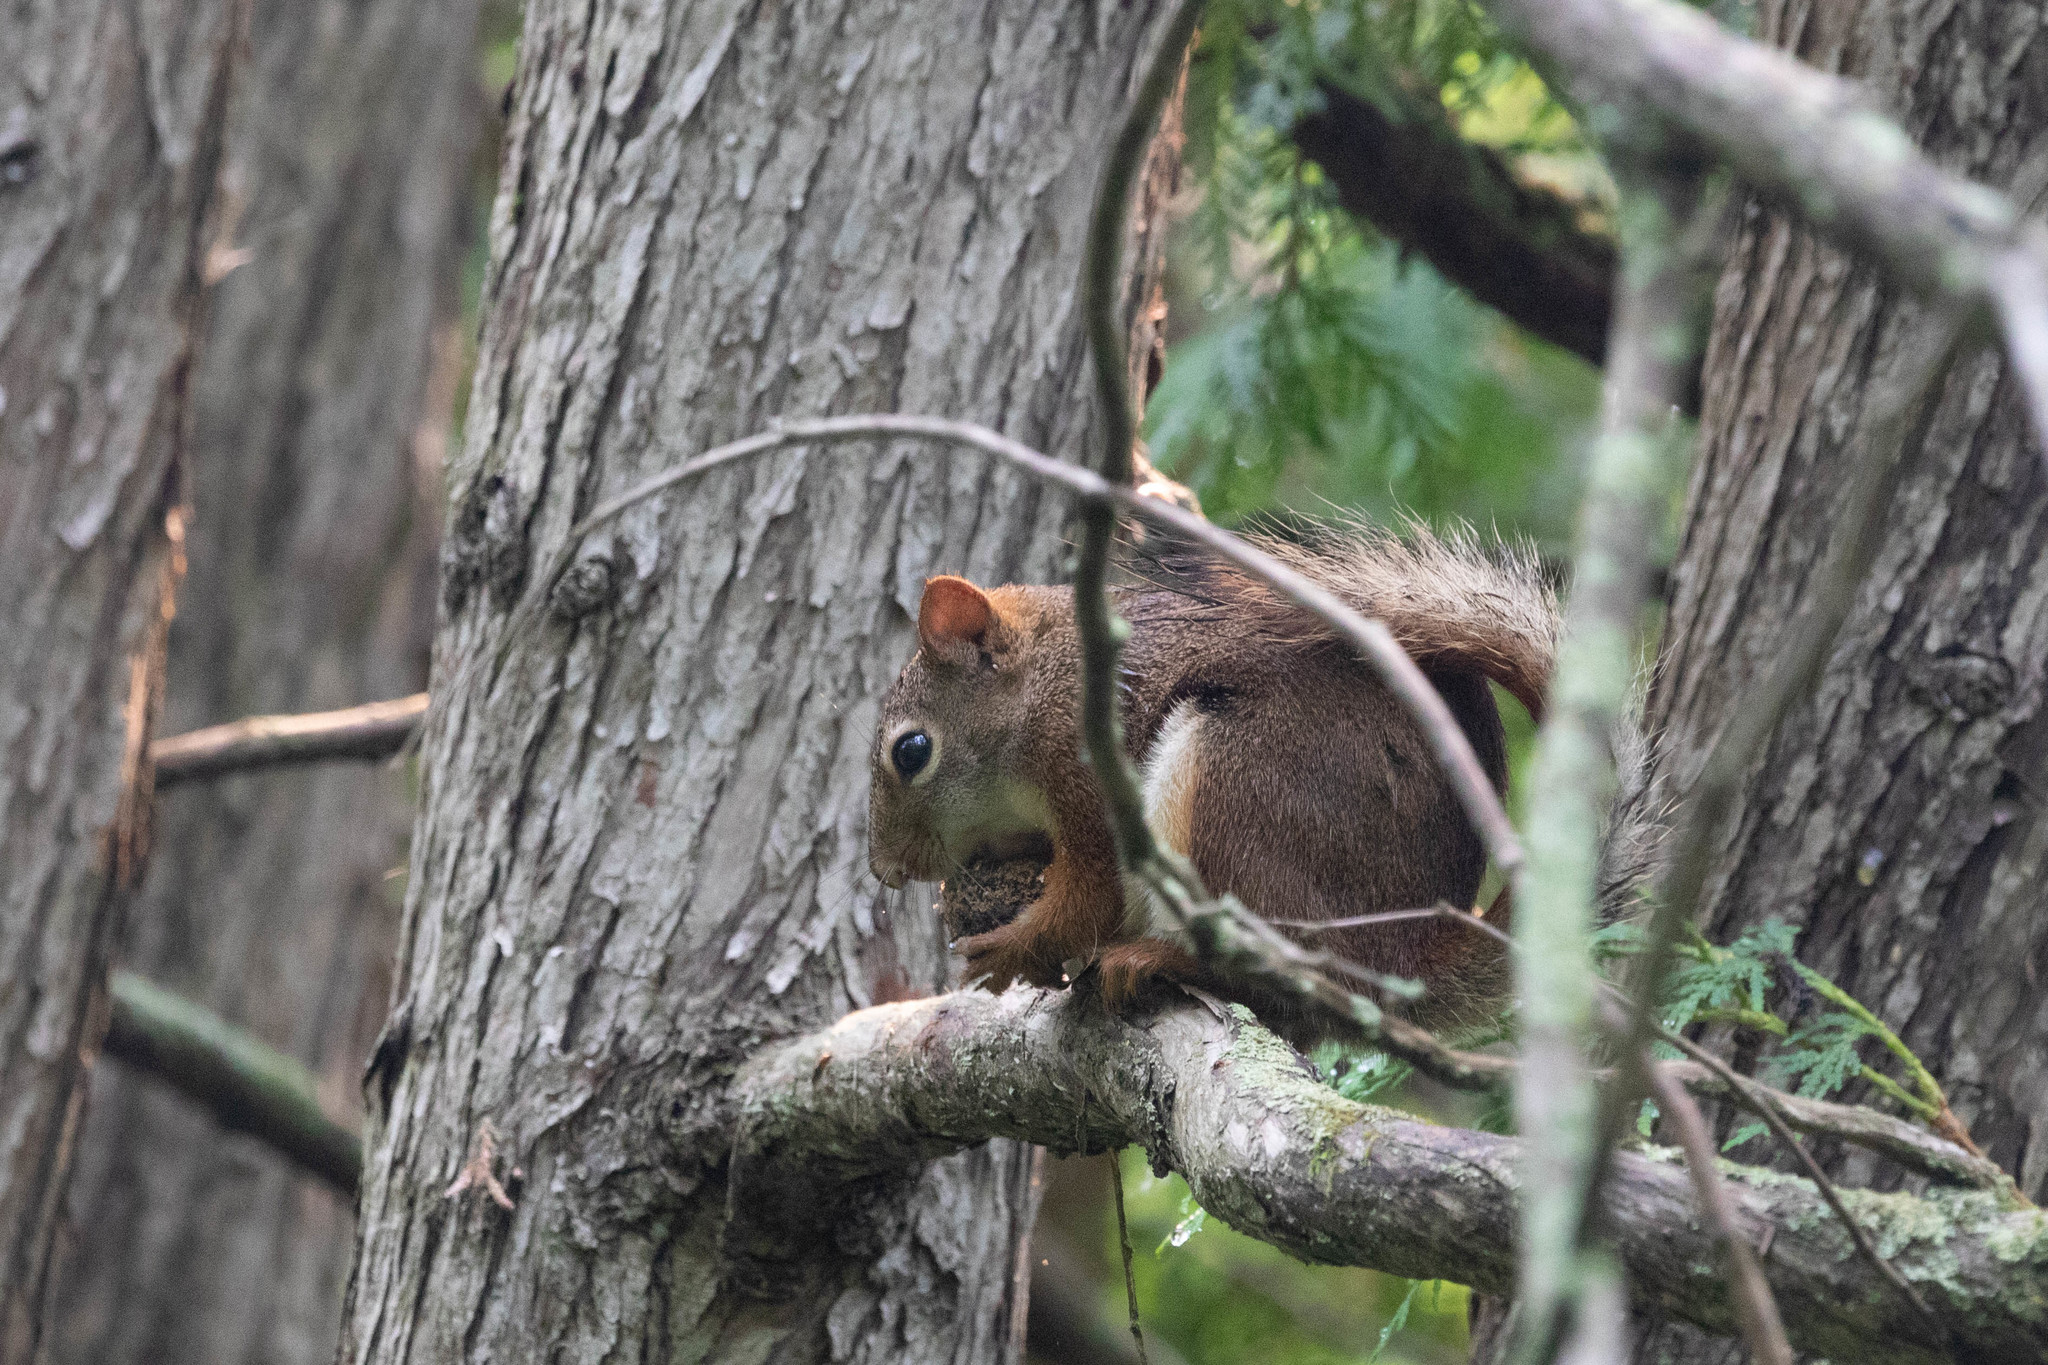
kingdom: Animalia
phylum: Chordata
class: Mammalia
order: Rodentia
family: Sciuridae
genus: Tamiasciurus
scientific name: Tamiasciurus hudsonicus
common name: Red squirrel
